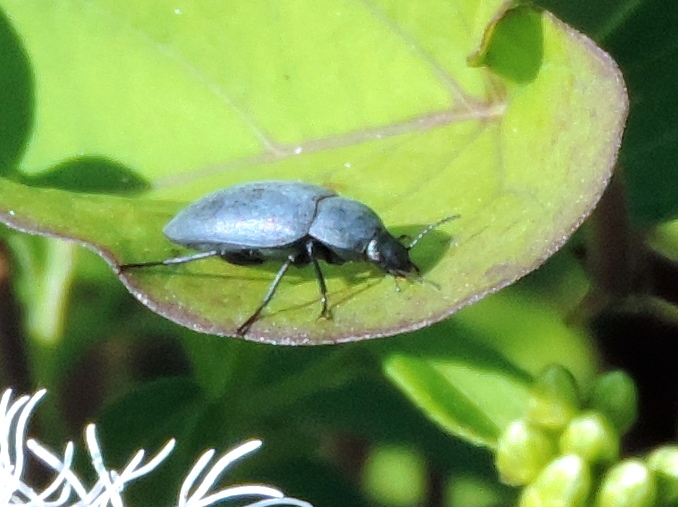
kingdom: Animalia
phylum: Arthropoda
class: Insecta
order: Coleoptera
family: Tenebrionidae
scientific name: Tenebrionidae
